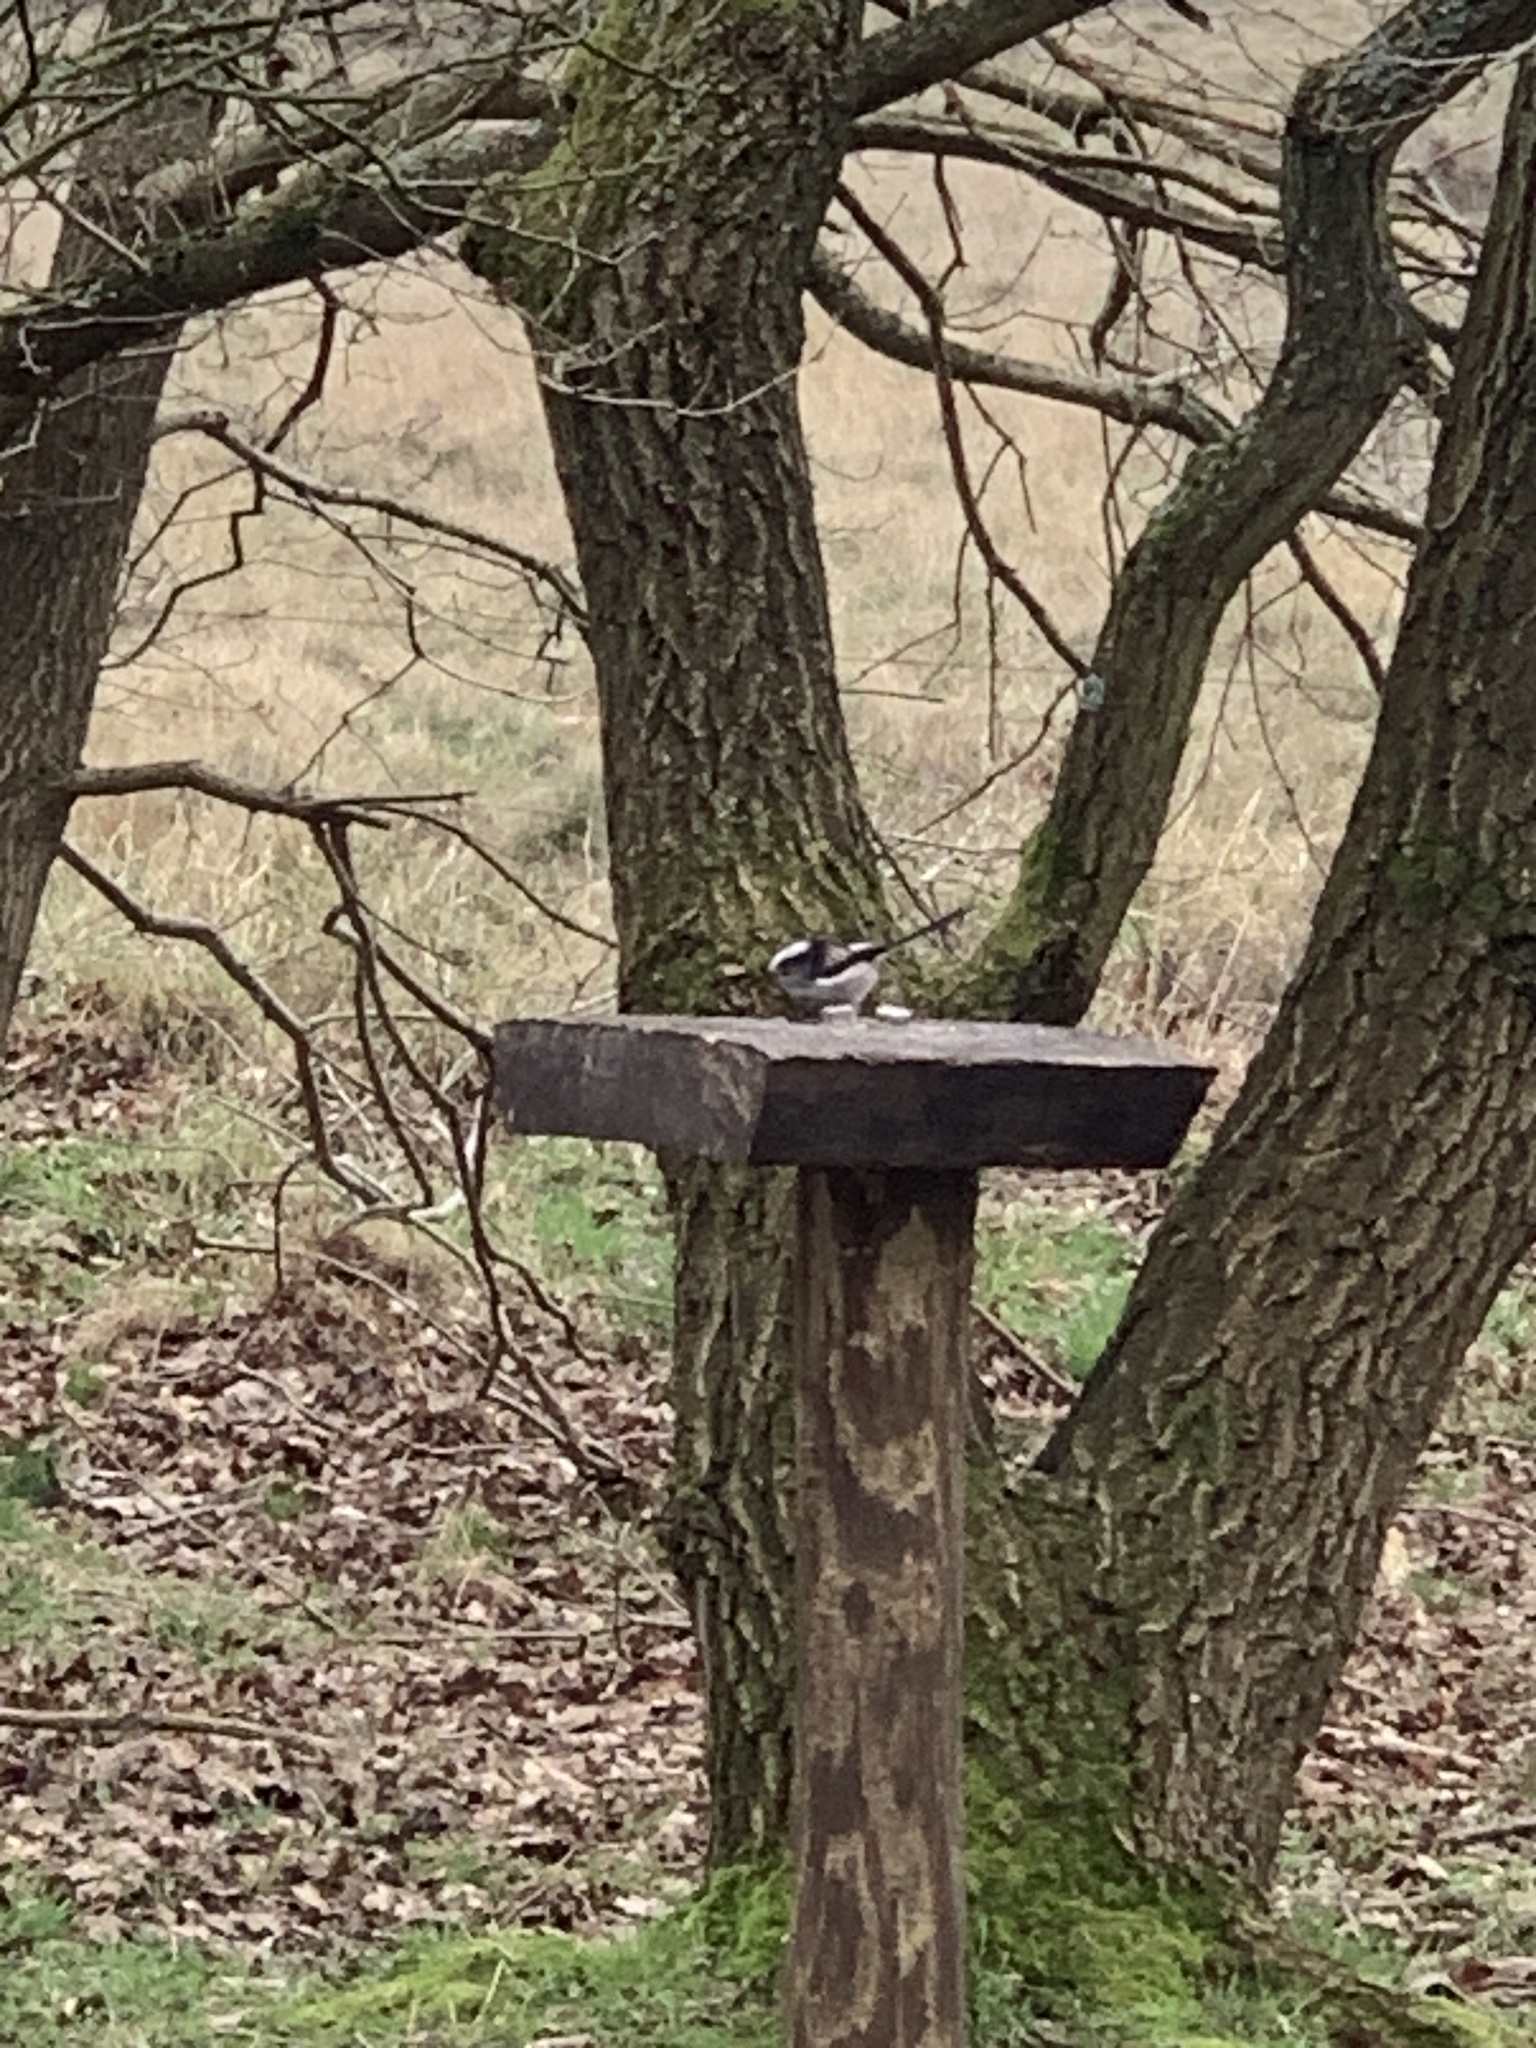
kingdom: Animalia
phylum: Chordata
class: Aves
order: Passeriformes
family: Aegithalidae
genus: Aegithalos
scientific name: Aegithalos caudatus
